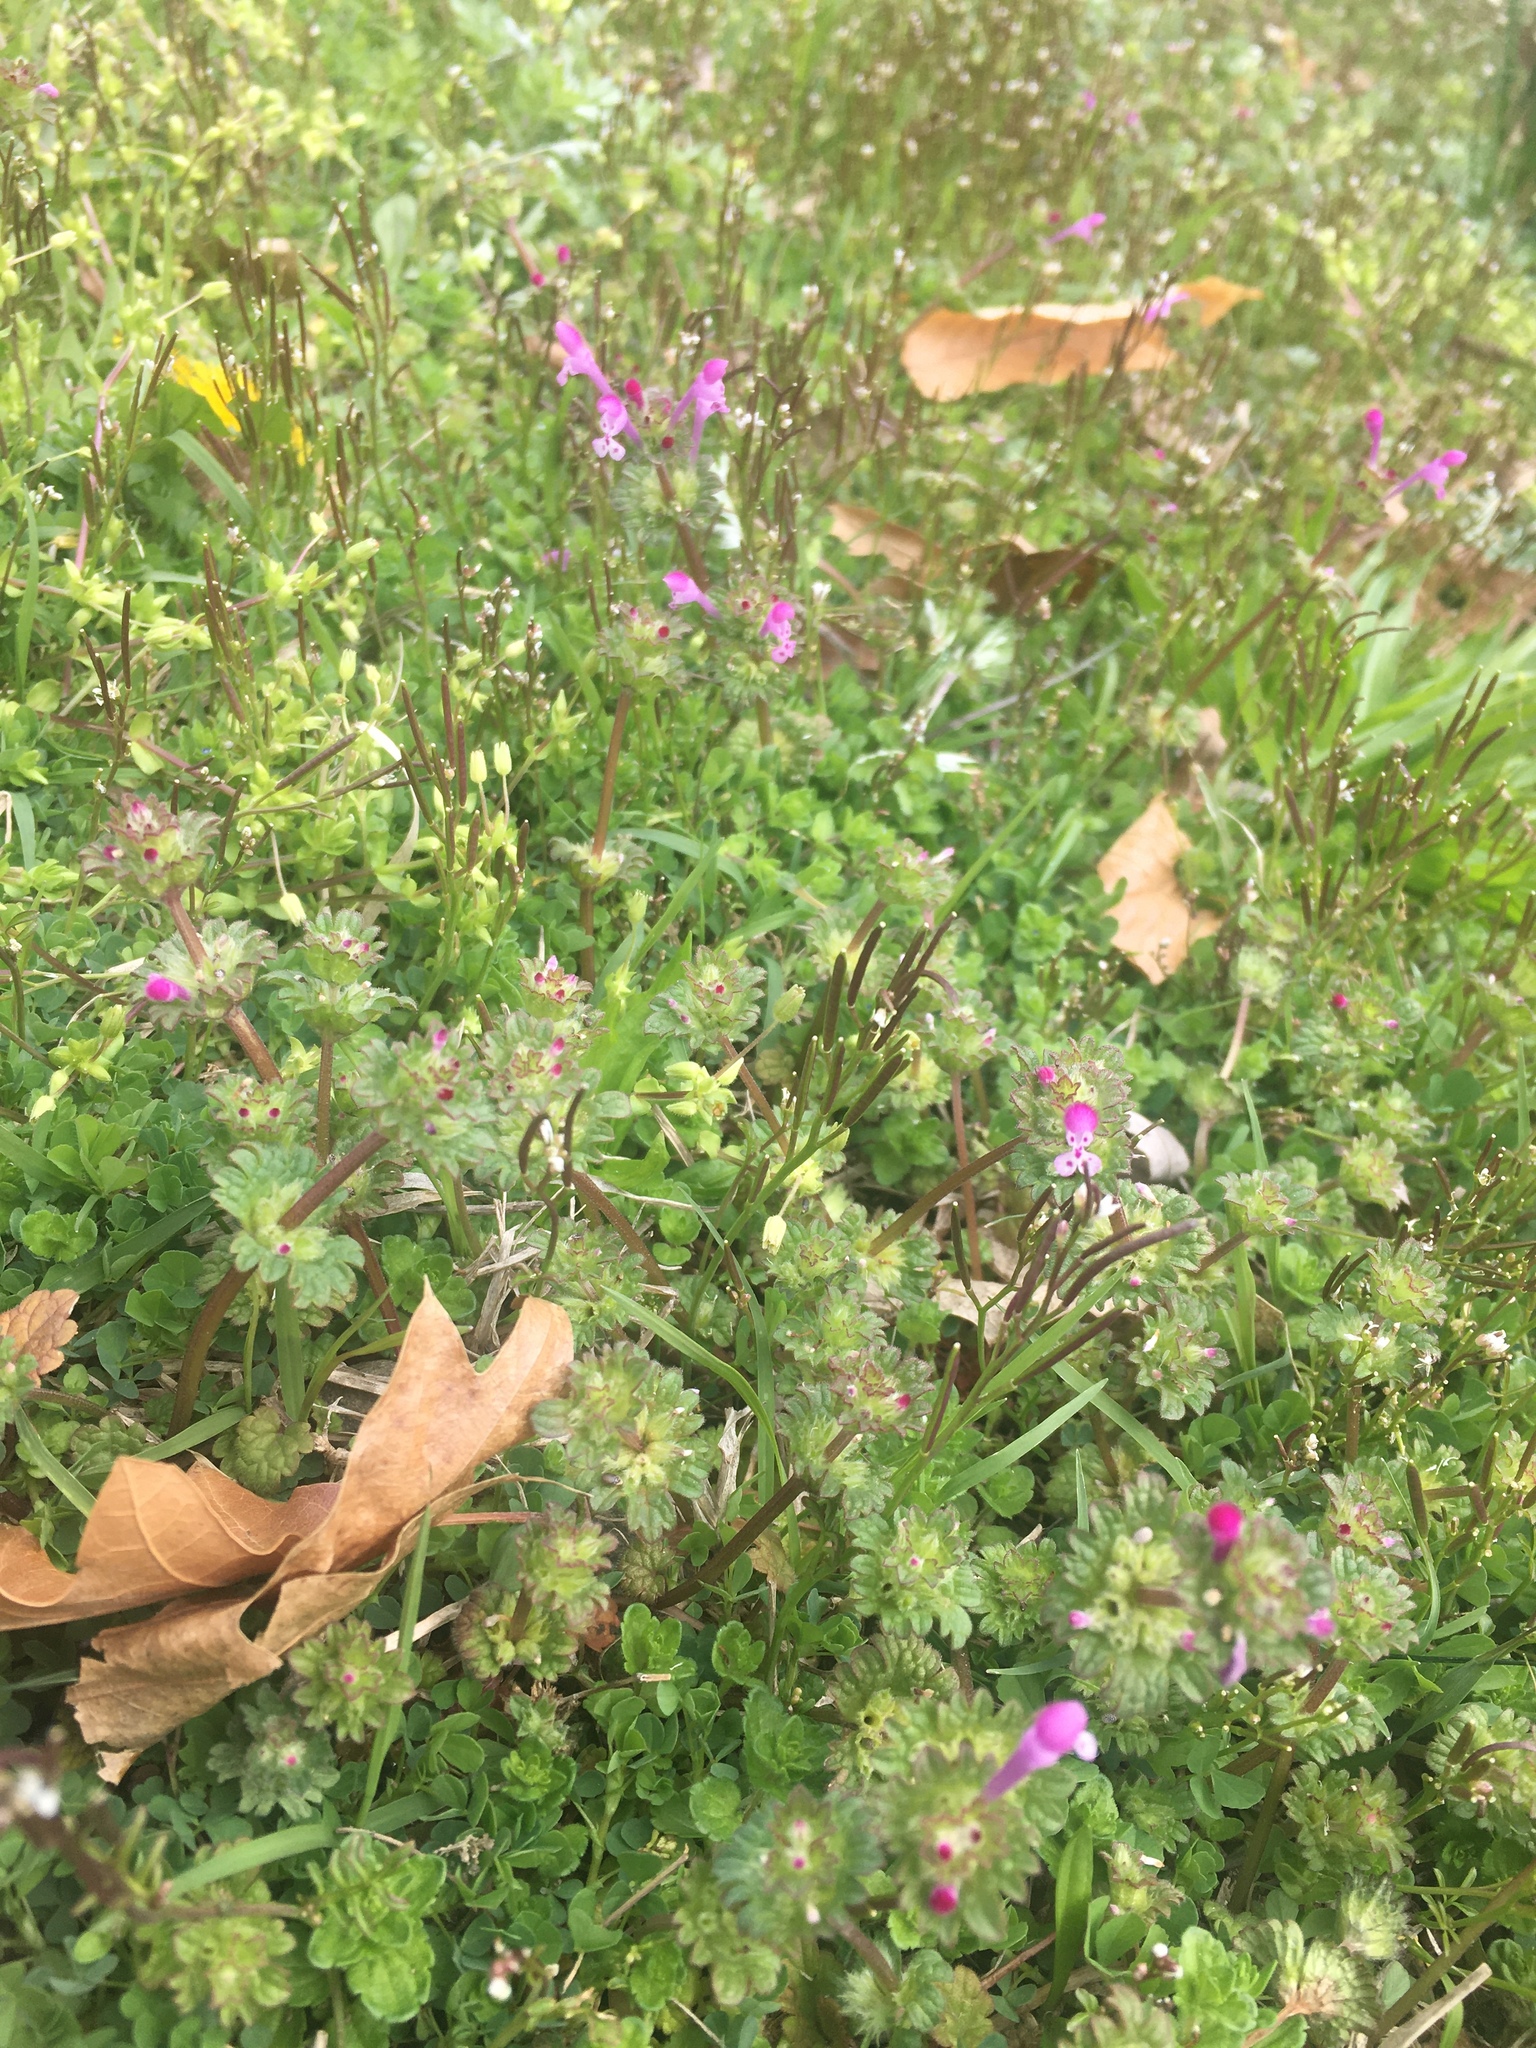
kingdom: Plantae
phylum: Tracheophyta
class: Magnoliopsida
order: Lamiales
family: Lamiaceae
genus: Lamium
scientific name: Lamium amplexicaule
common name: Henbit dead-nettle
